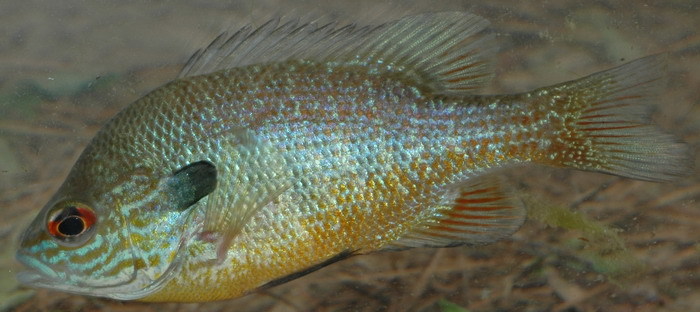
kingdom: Animalia
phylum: Chordata
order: Perciformes
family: Centrarchidae
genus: Lepomis
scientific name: Lepomis megalotis
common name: Longear sunfish
